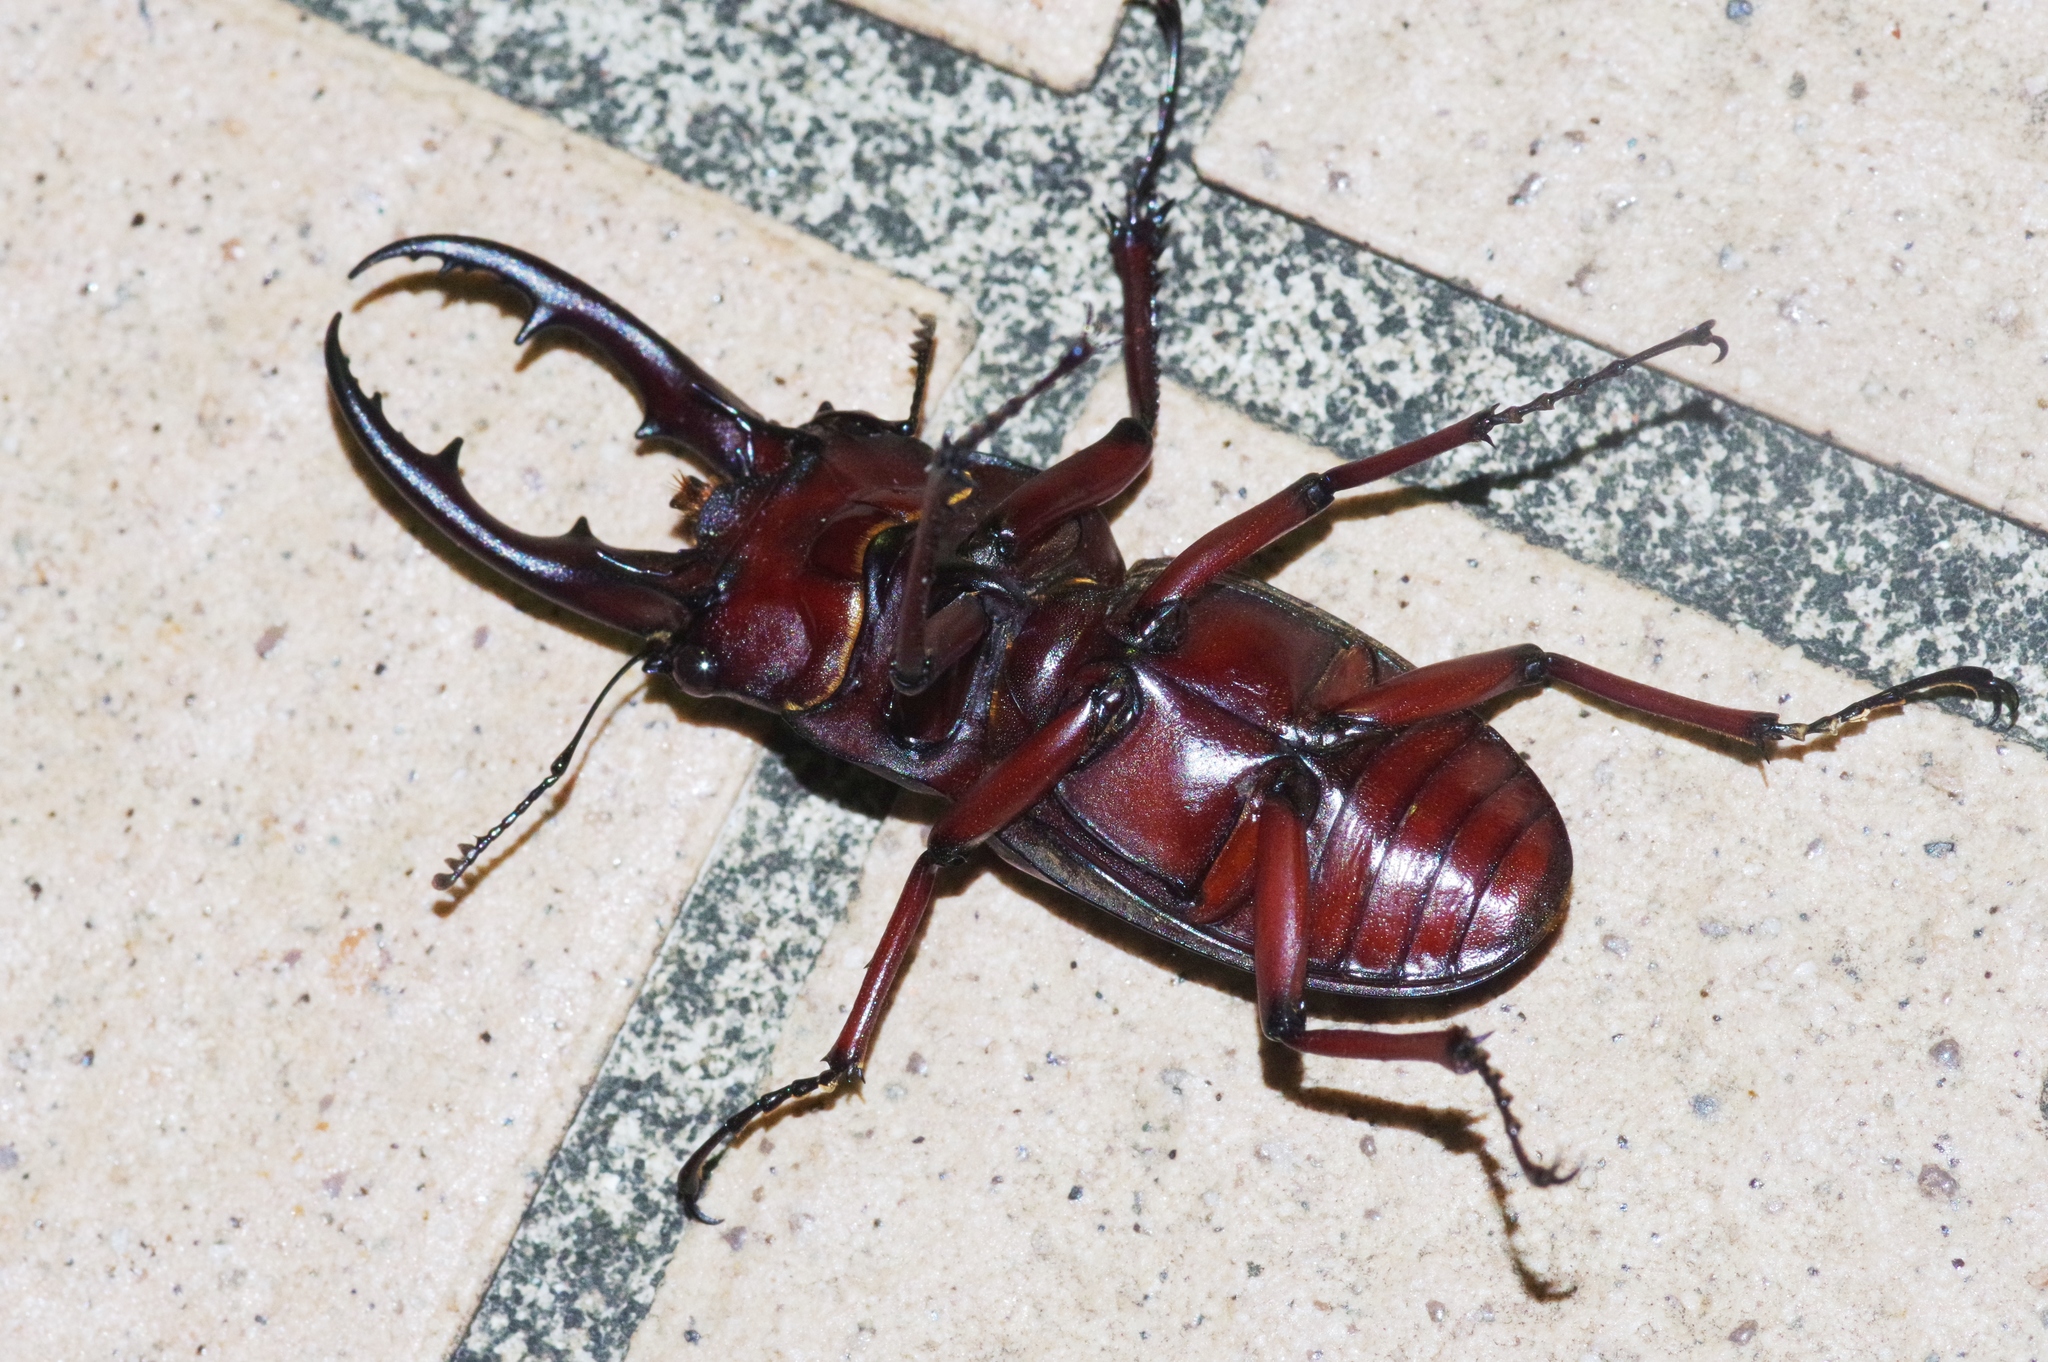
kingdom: Animalia
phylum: Arthropoda
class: Insecta
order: Coleoptera
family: Lucanidae
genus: Prosopocoilus
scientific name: Prosopocoilus dissimilis
